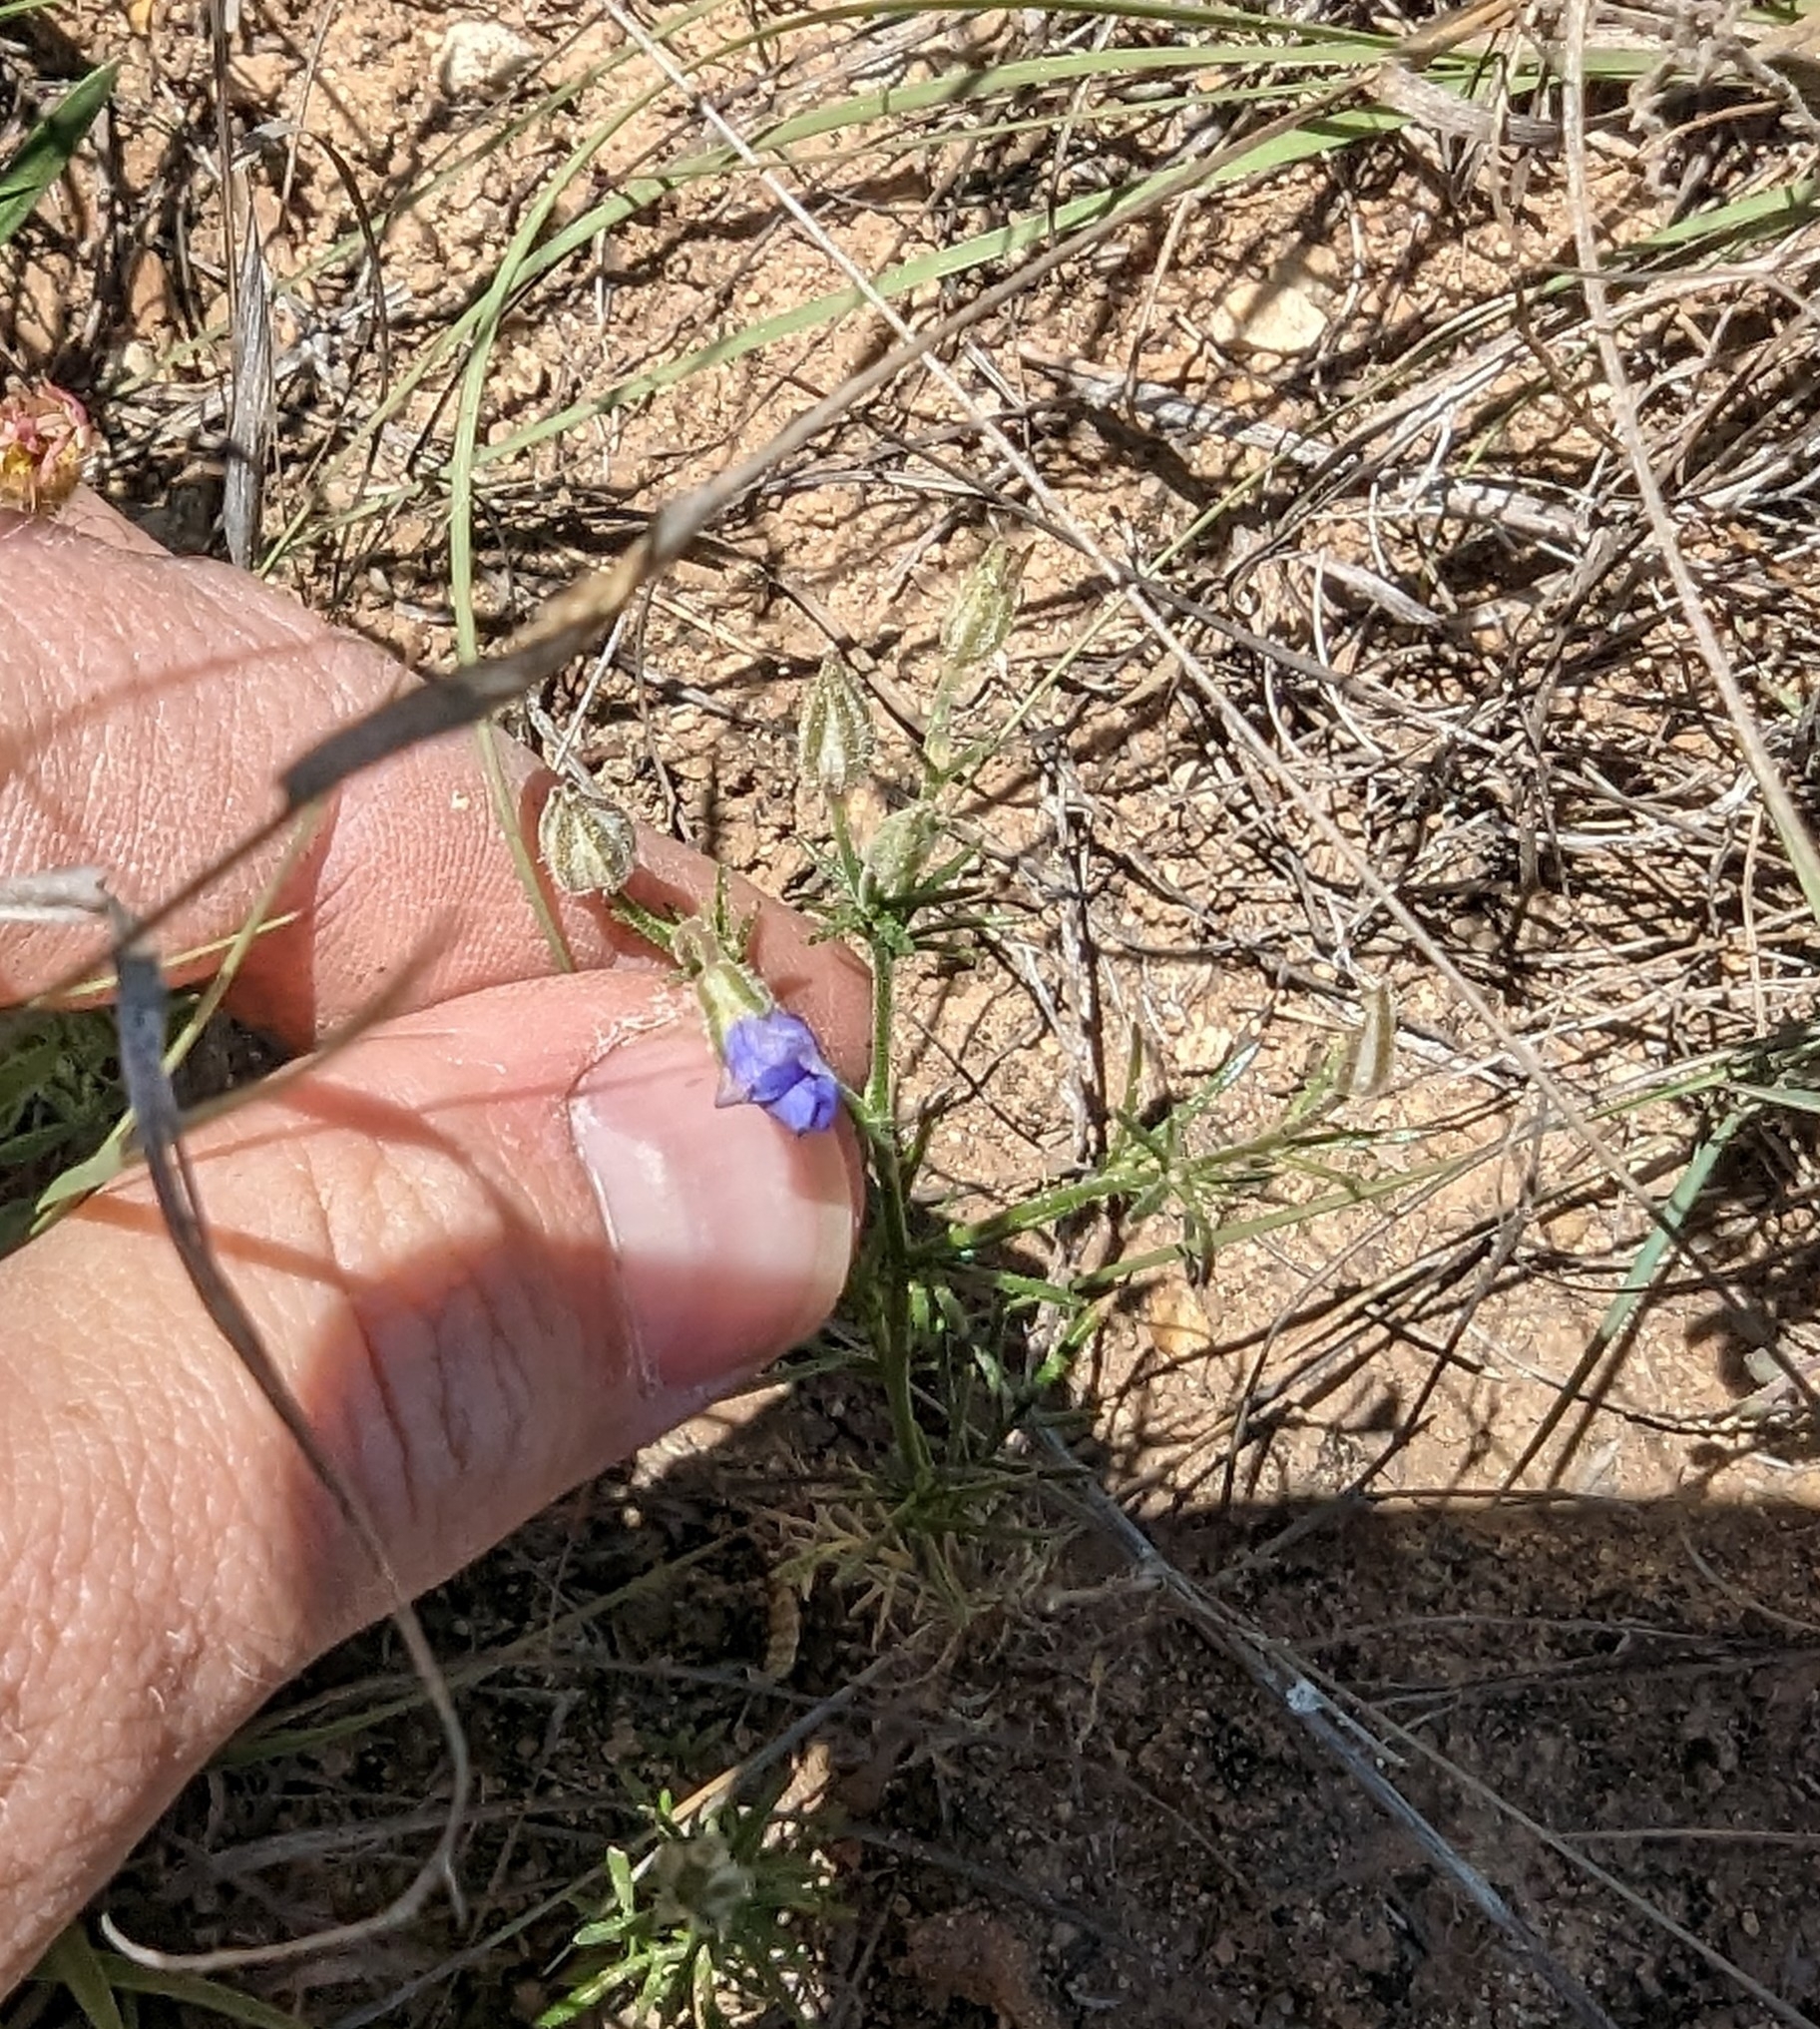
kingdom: Plantae
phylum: Tracheophyta
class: Magnoliopsida
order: Ericales
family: Polemoniaceae
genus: Giliastrum
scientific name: Giliastrum rigidulum
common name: Bluebowls
